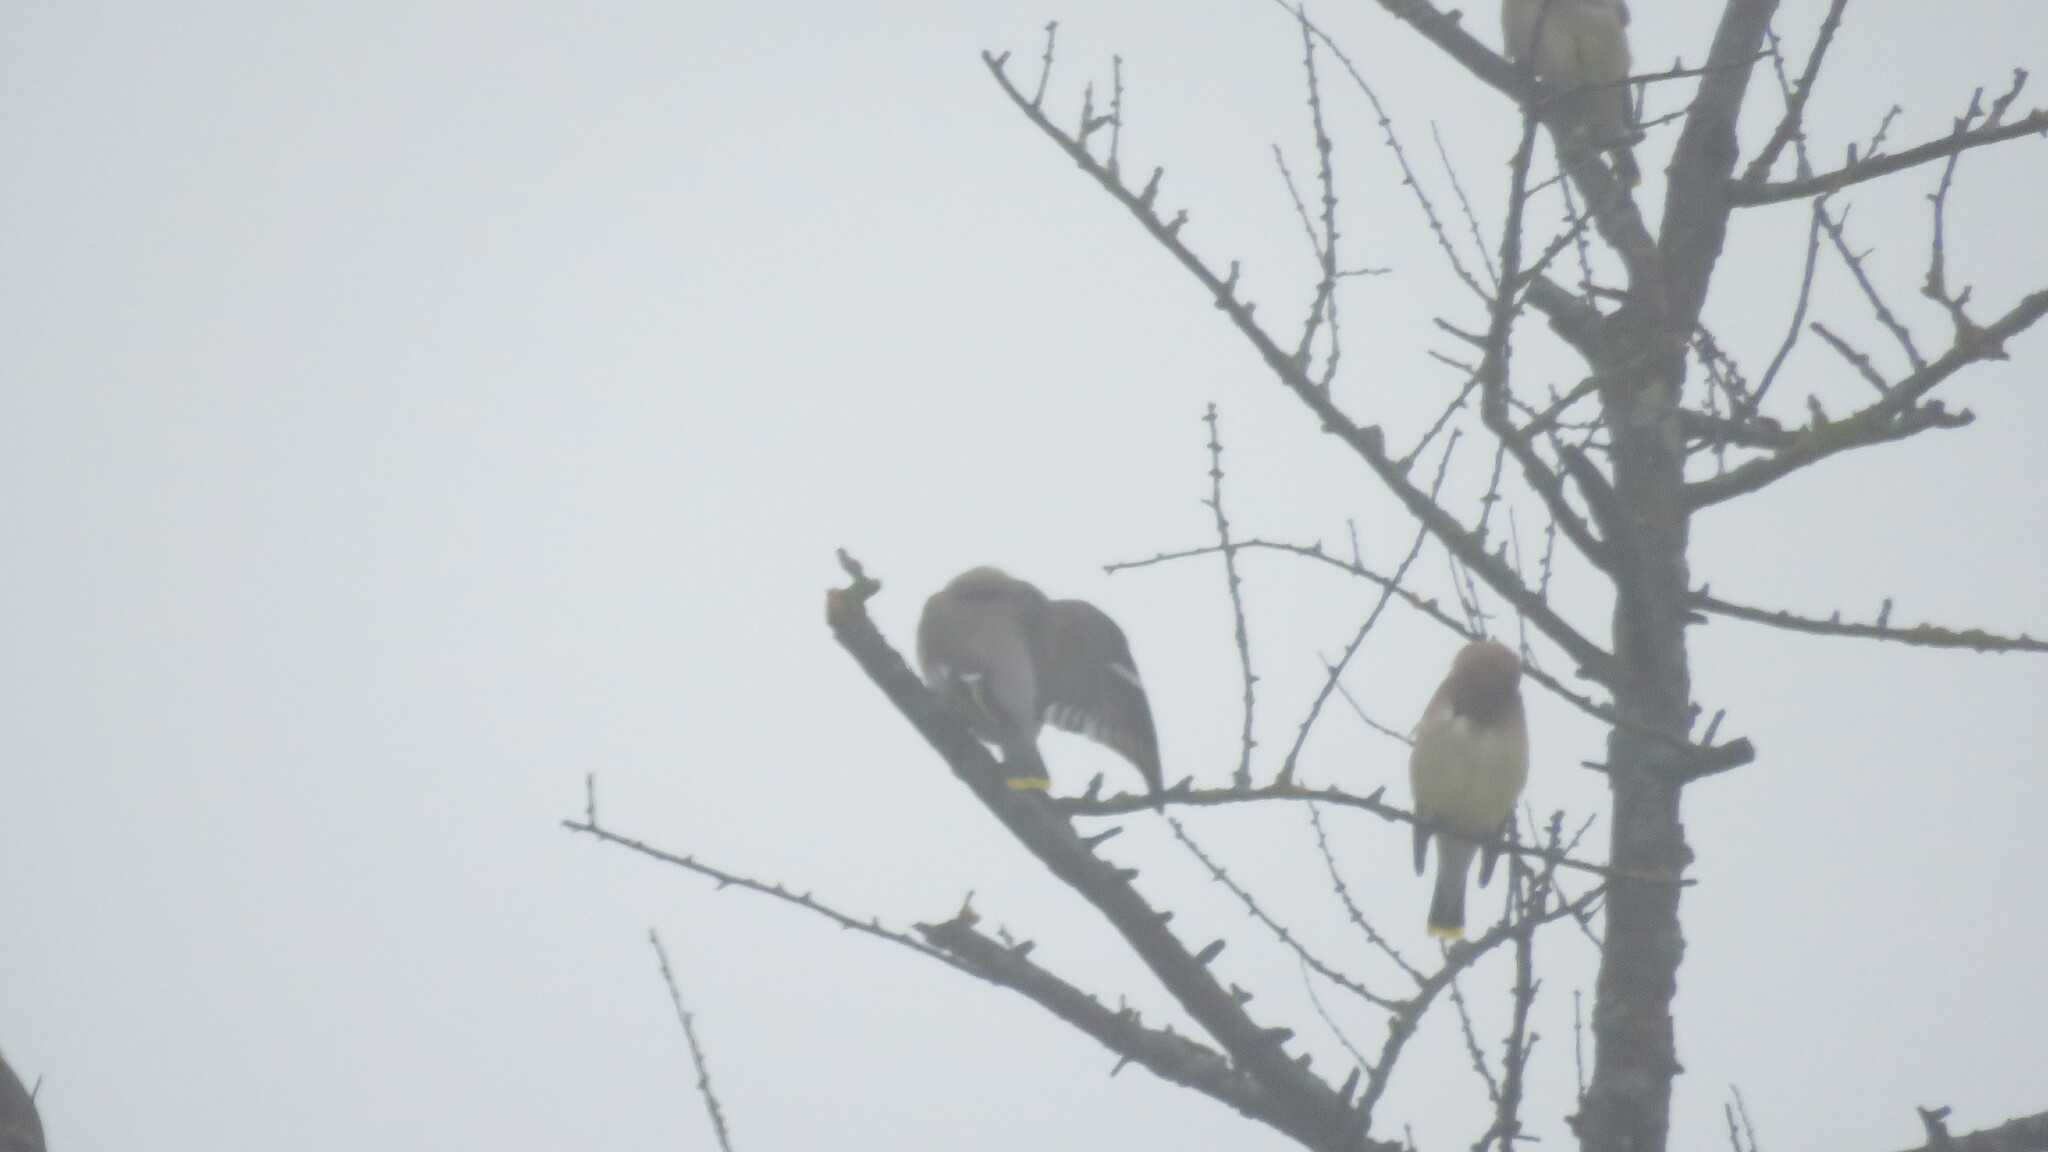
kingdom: Animalia
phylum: Chordata
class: Aves
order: Passeriformes
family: Bombycillidae
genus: Bombycilla
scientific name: Bombycilla garrulus
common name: Bohemian waxwing
